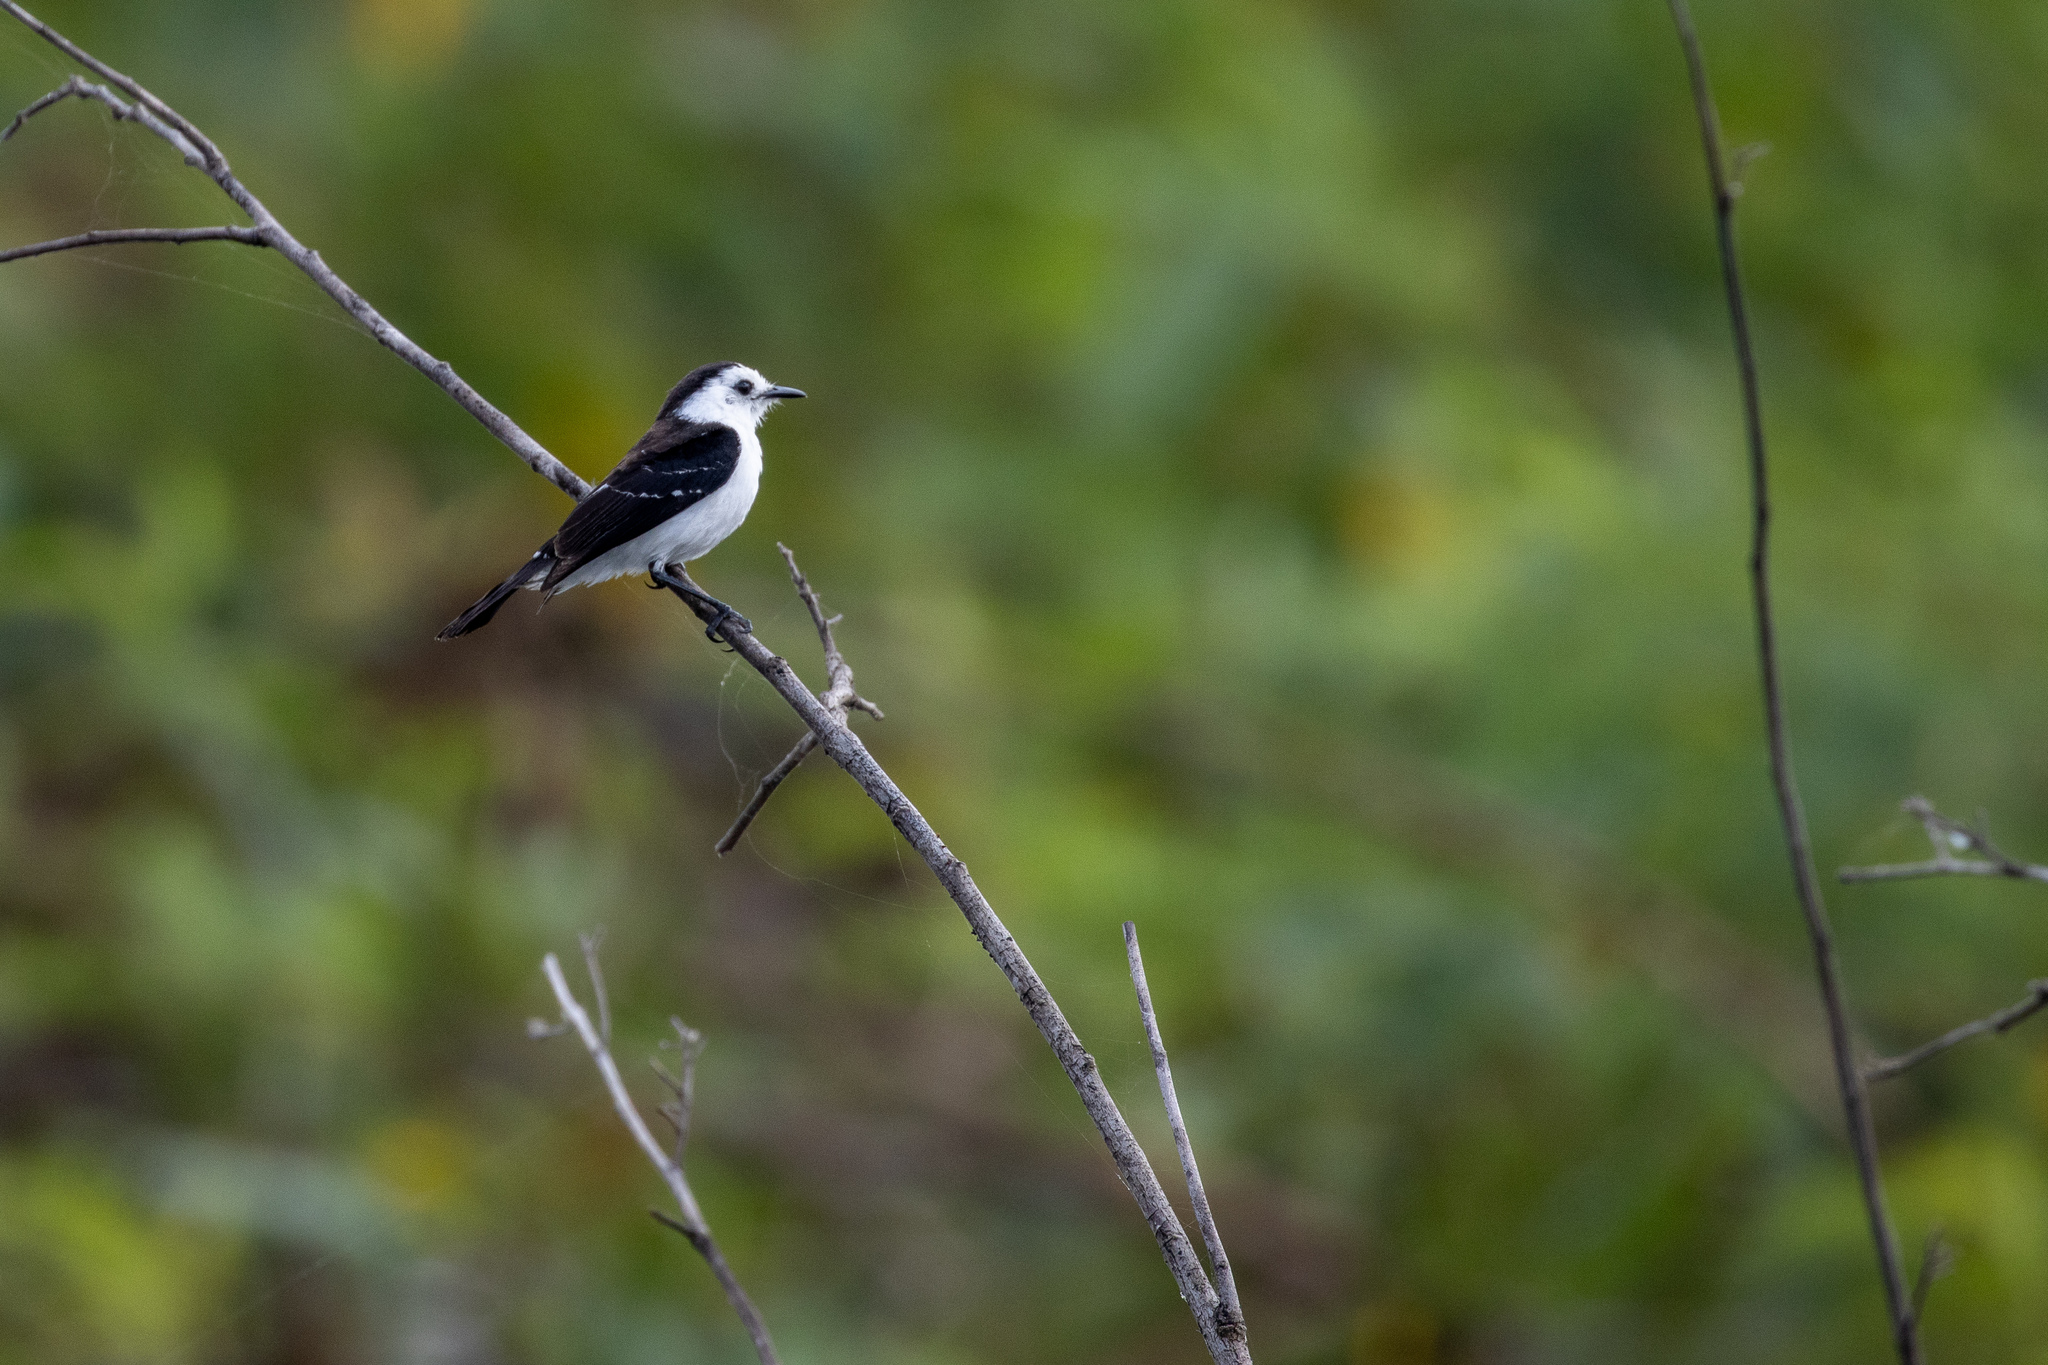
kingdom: Animalia
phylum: Chordata
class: Aves
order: Passeriformes
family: Tyrannidae
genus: Fluvicola
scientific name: Fluvicola pica
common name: Pied water-tyrant
